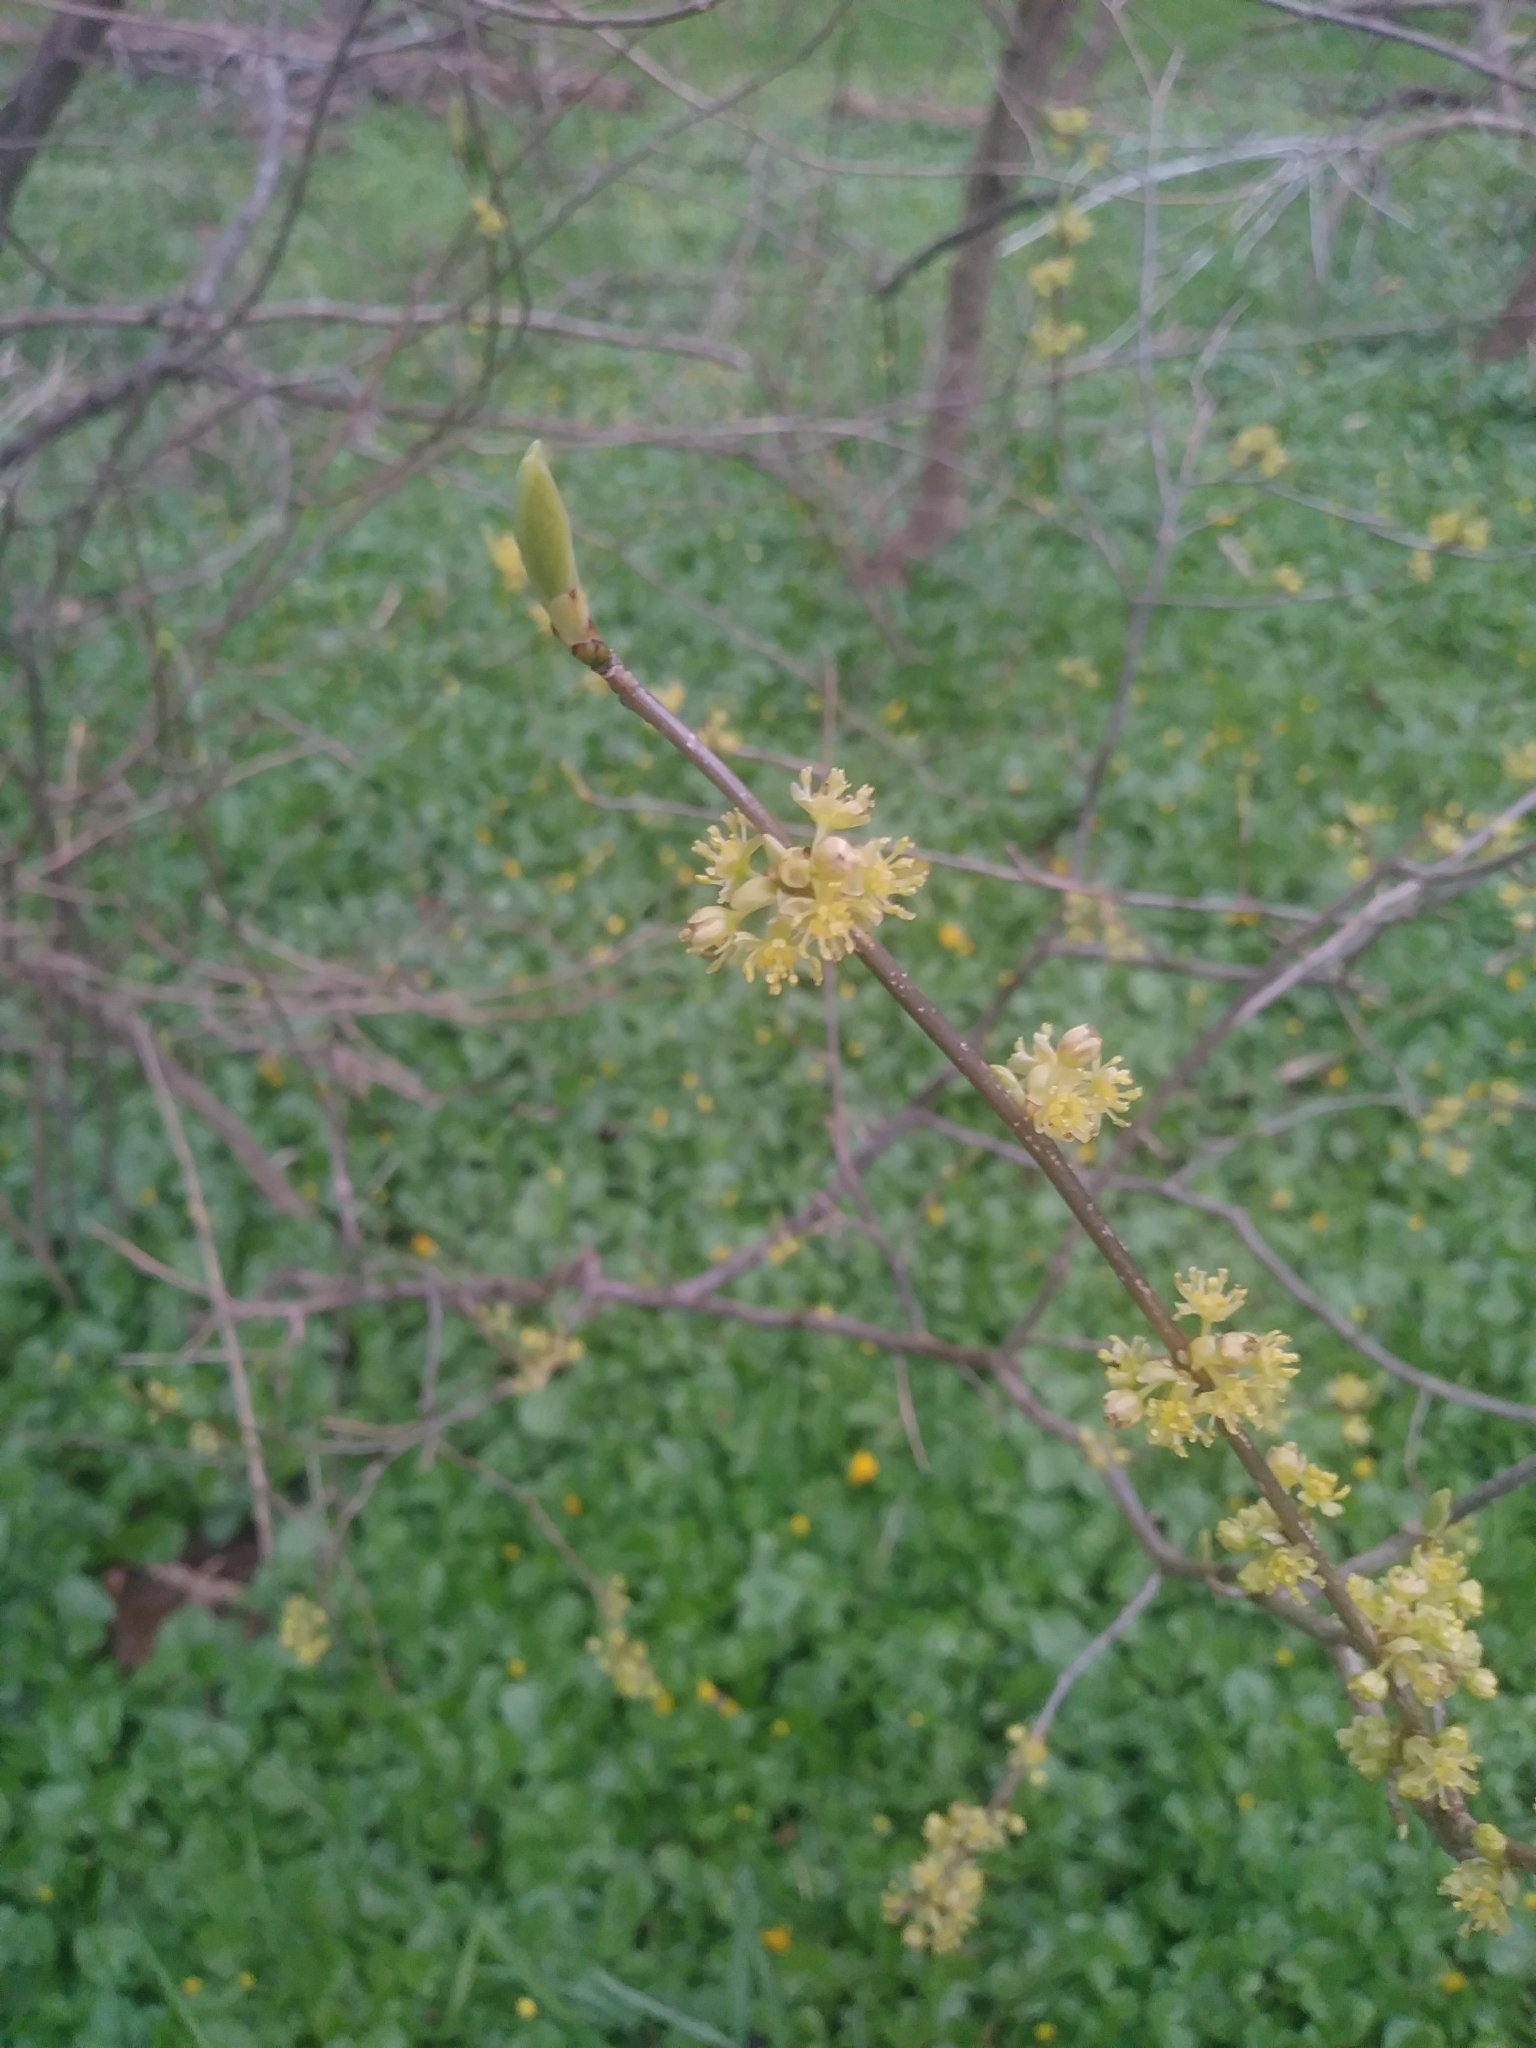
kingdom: Plantae
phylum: Tracheophyta
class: Magnoliopsida
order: Laurales
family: Lauraceae
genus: Lindera
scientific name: Lindera benzoin
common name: Spicebush
